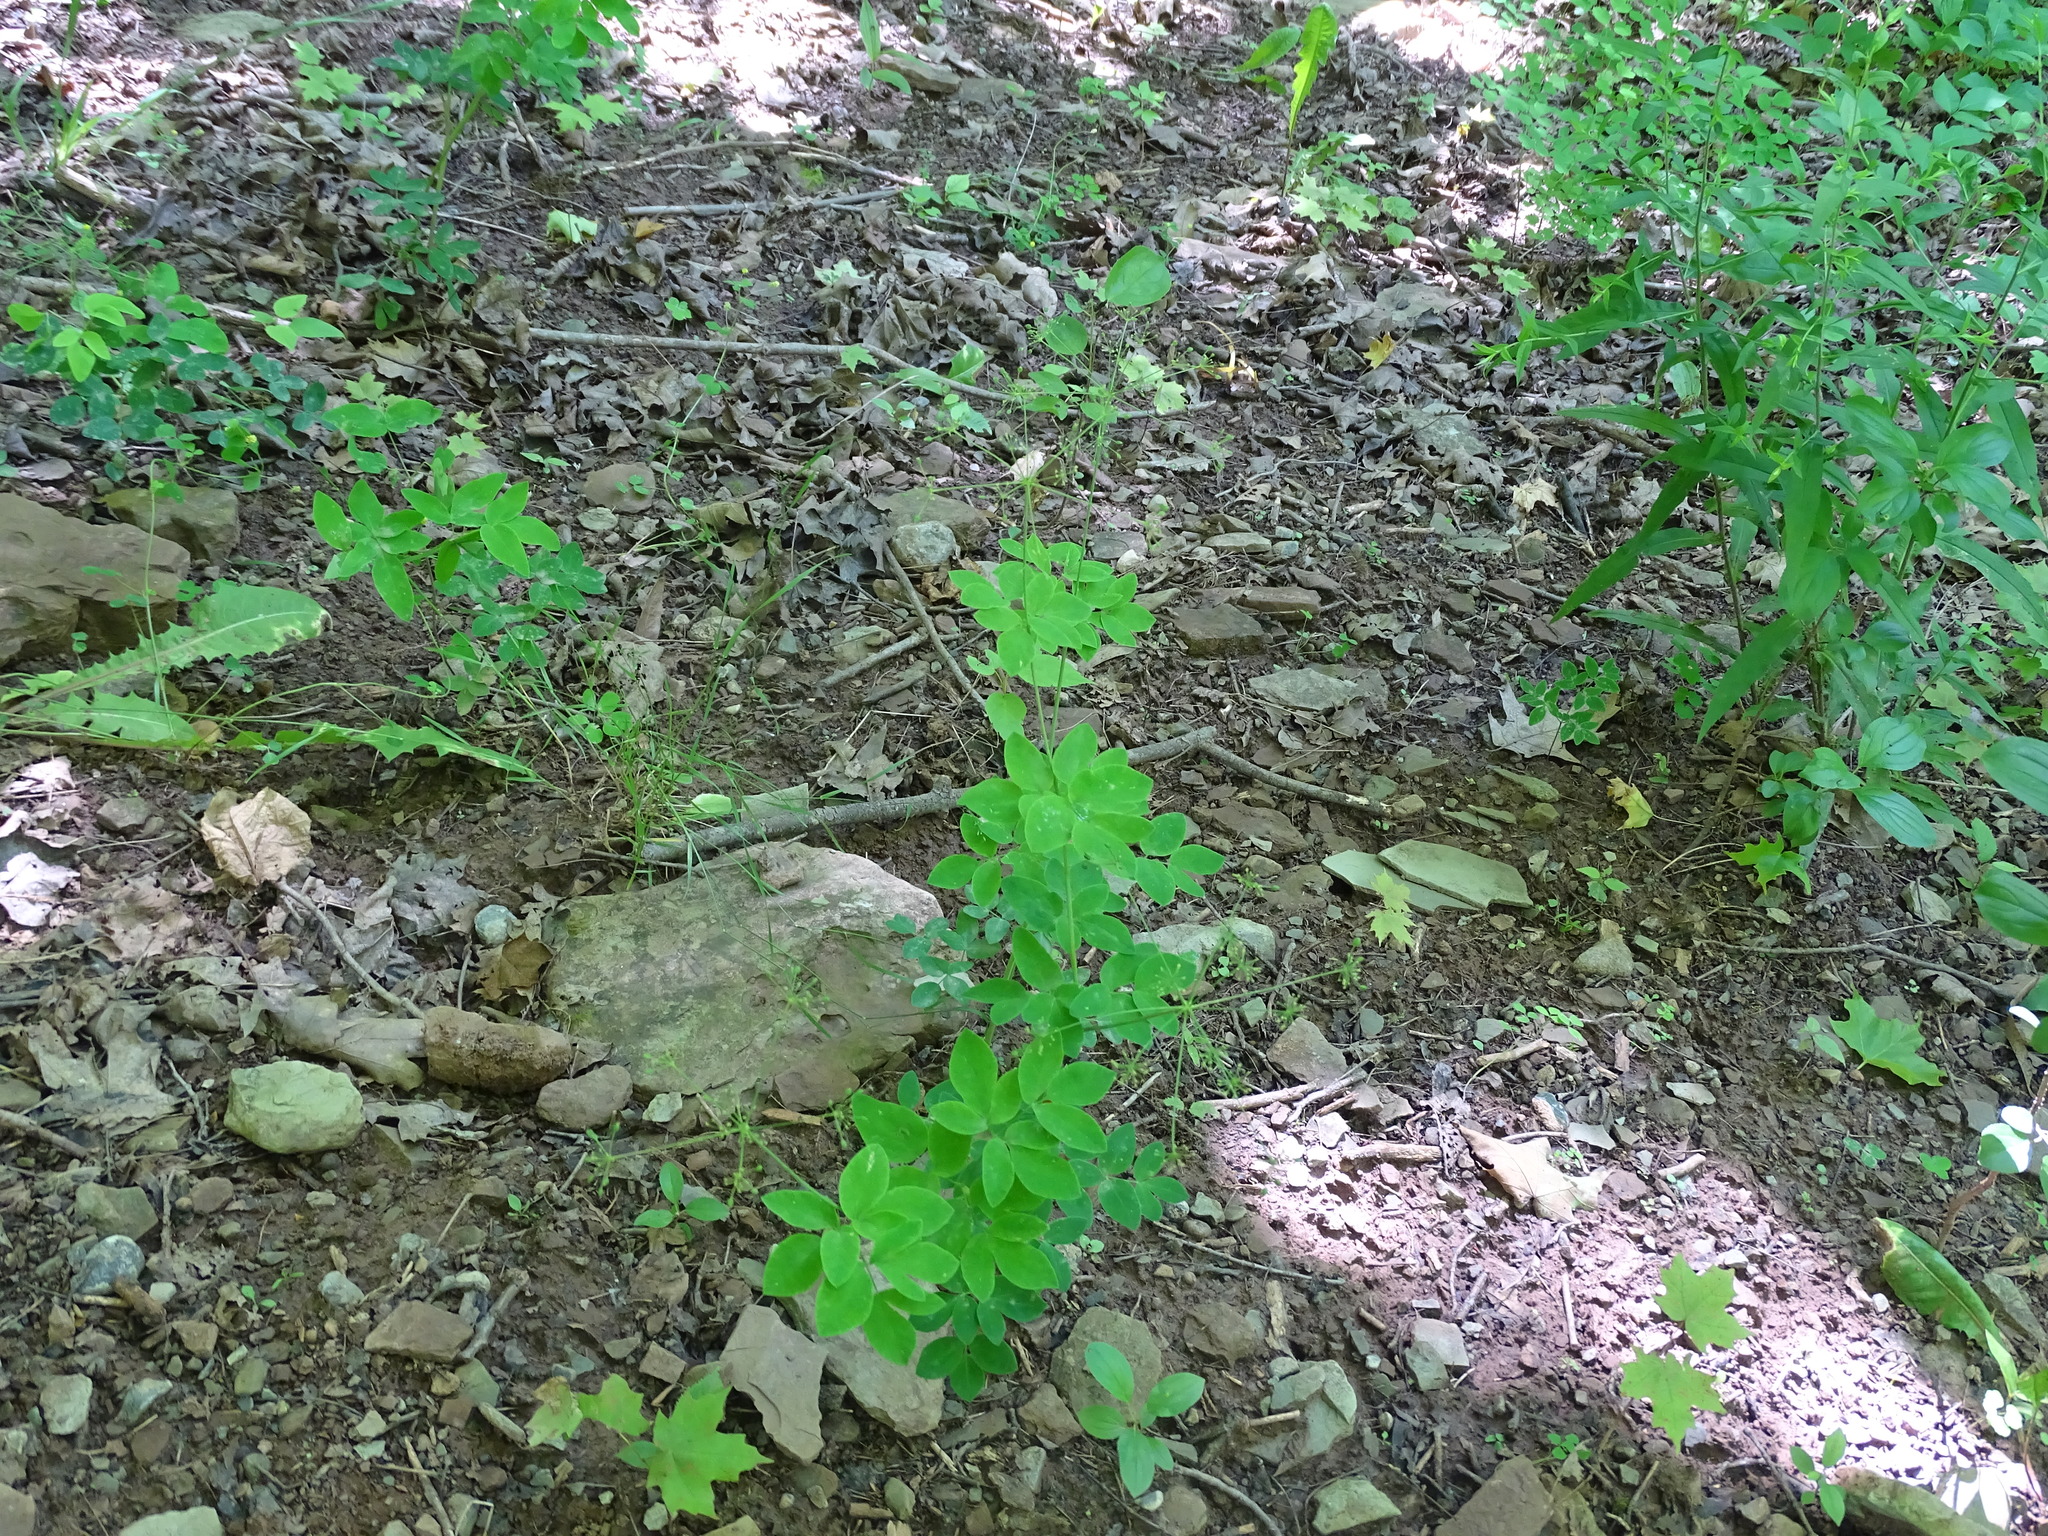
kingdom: Plantae
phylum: Tracheophyta
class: Magnoliopsida
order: Apiales
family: Apiaceae
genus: Taenidia
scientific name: Taenidia integerrima
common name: Golden alexander
